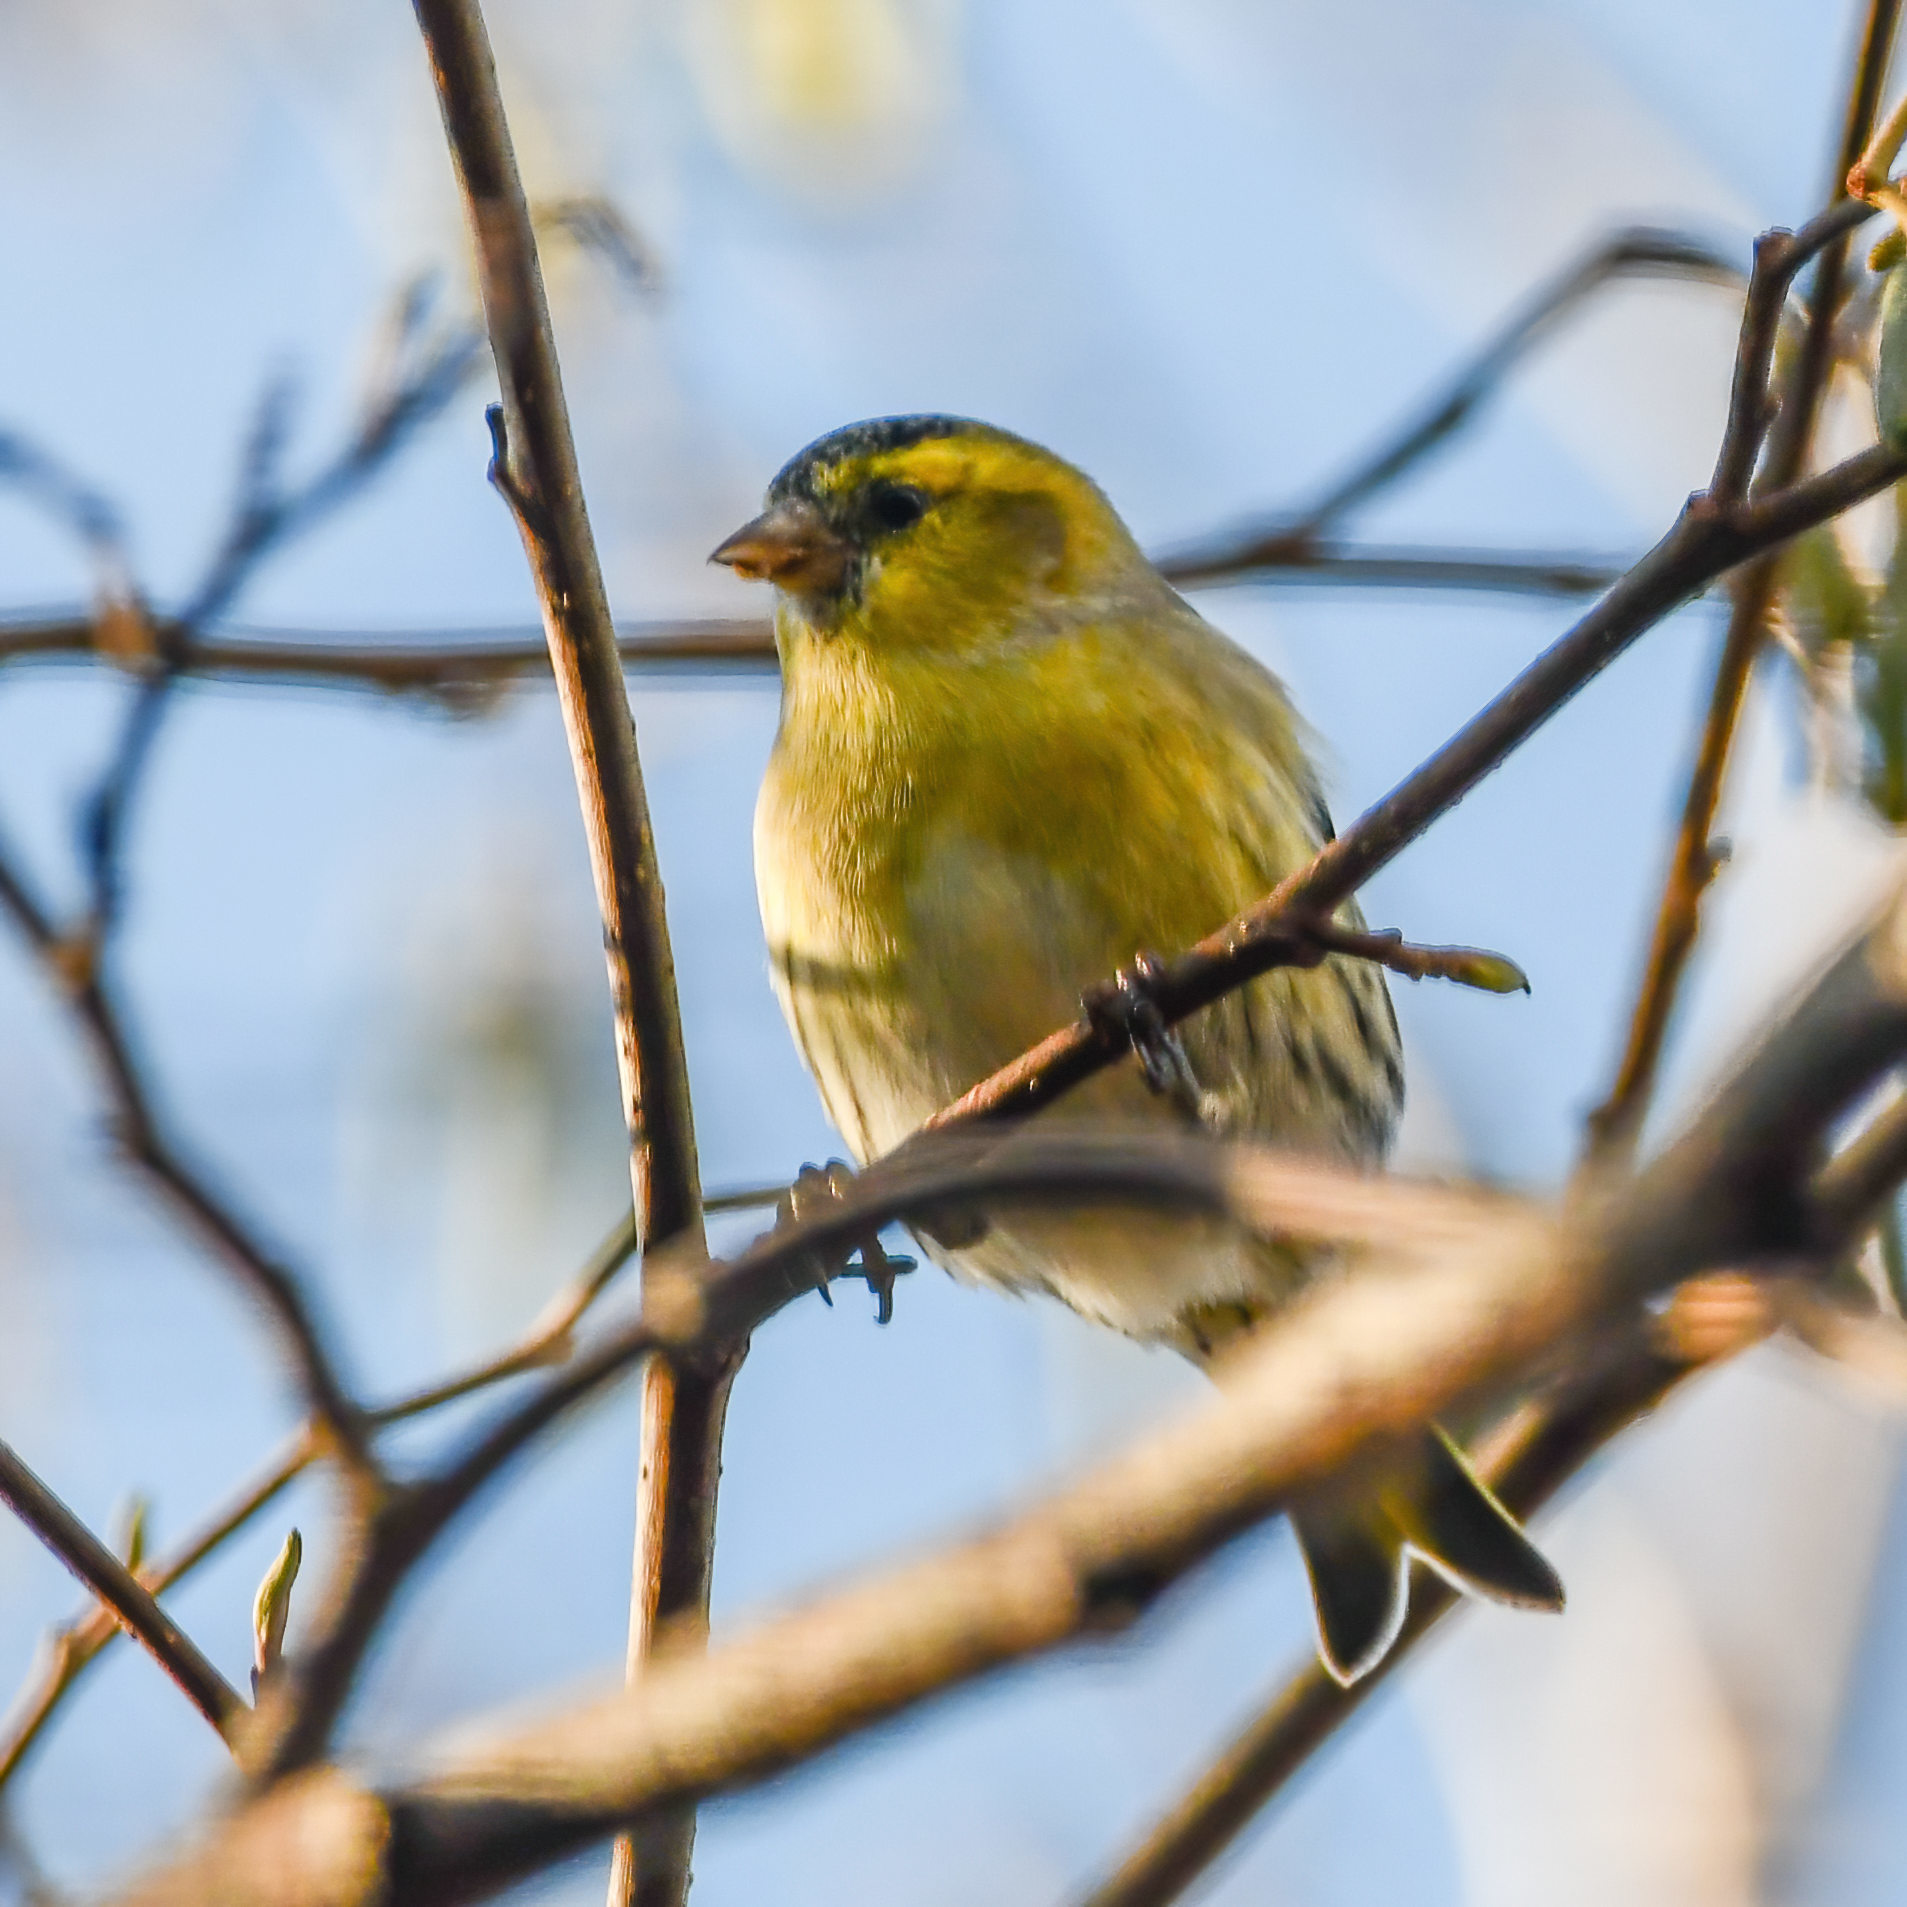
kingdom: Animalia
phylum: Chordata
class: Aves
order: Passeriformes
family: Fringillidae
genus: Spinus
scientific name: Spinus spinus
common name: Eurasian siskin
